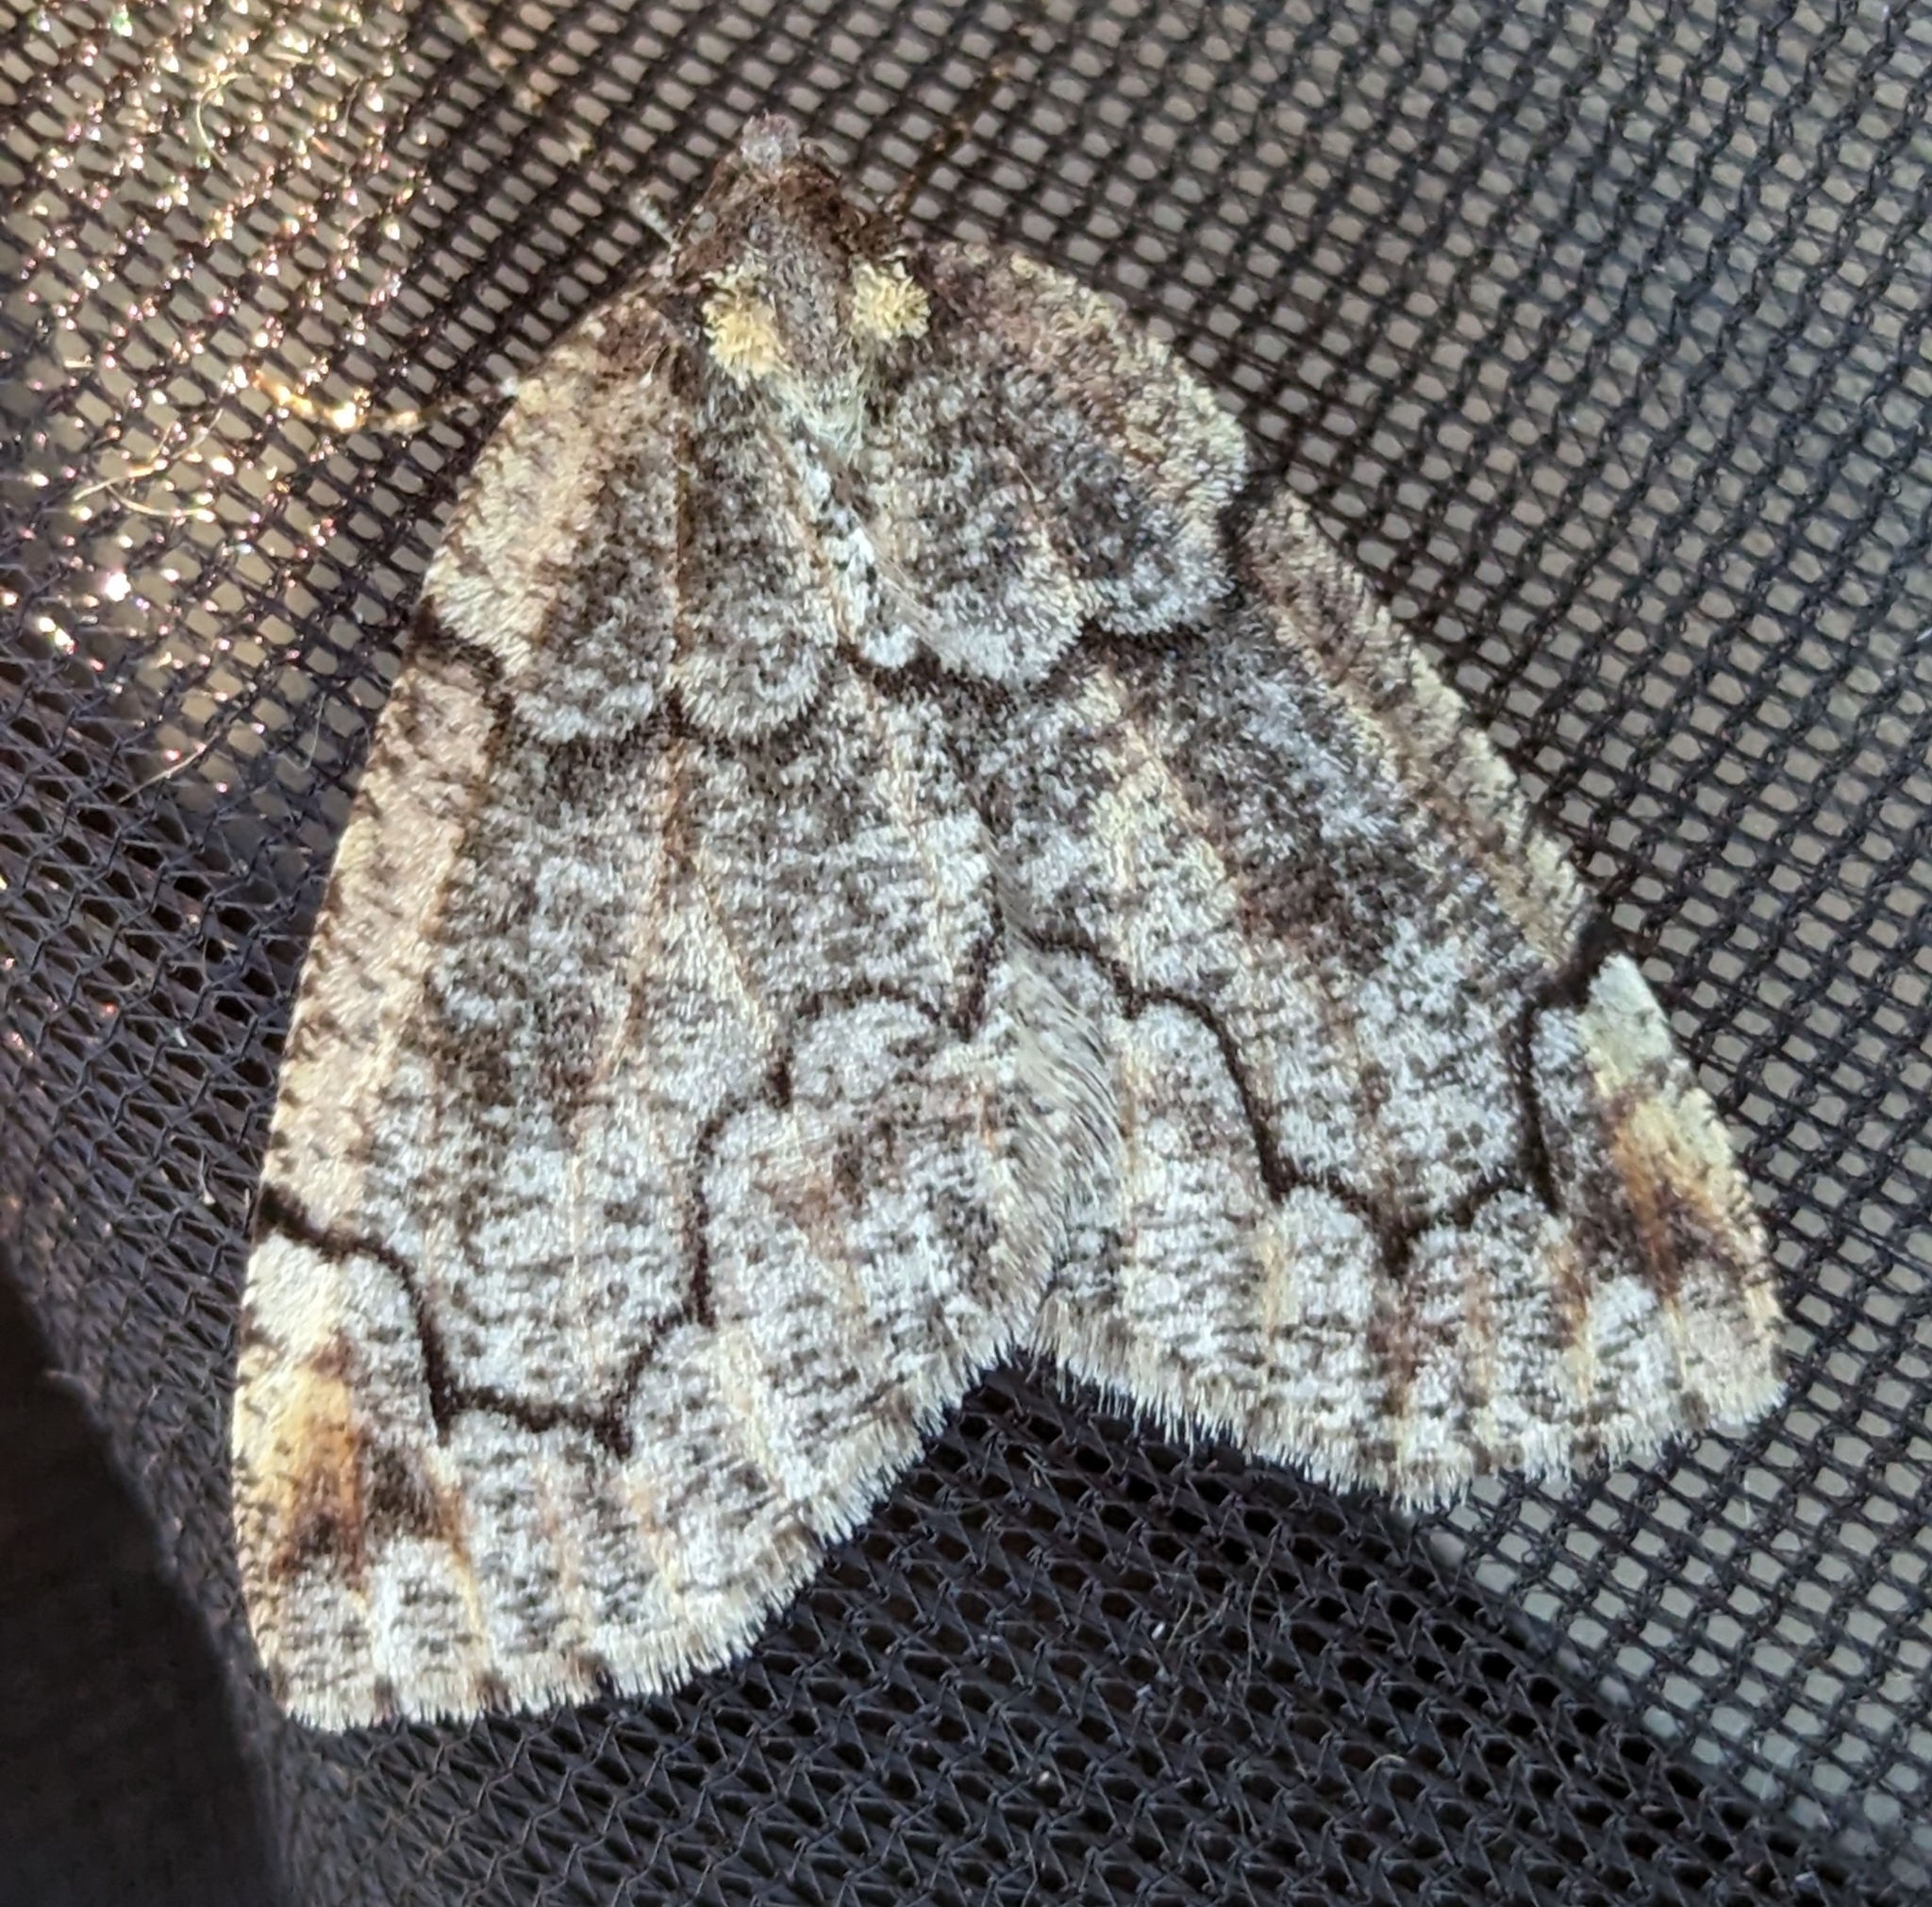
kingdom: Animalia
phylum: Arthropoda
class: Insecta
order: Lepidoptera
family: Geometridae
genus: Spodolepis
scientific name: Spodolepis danbyi
